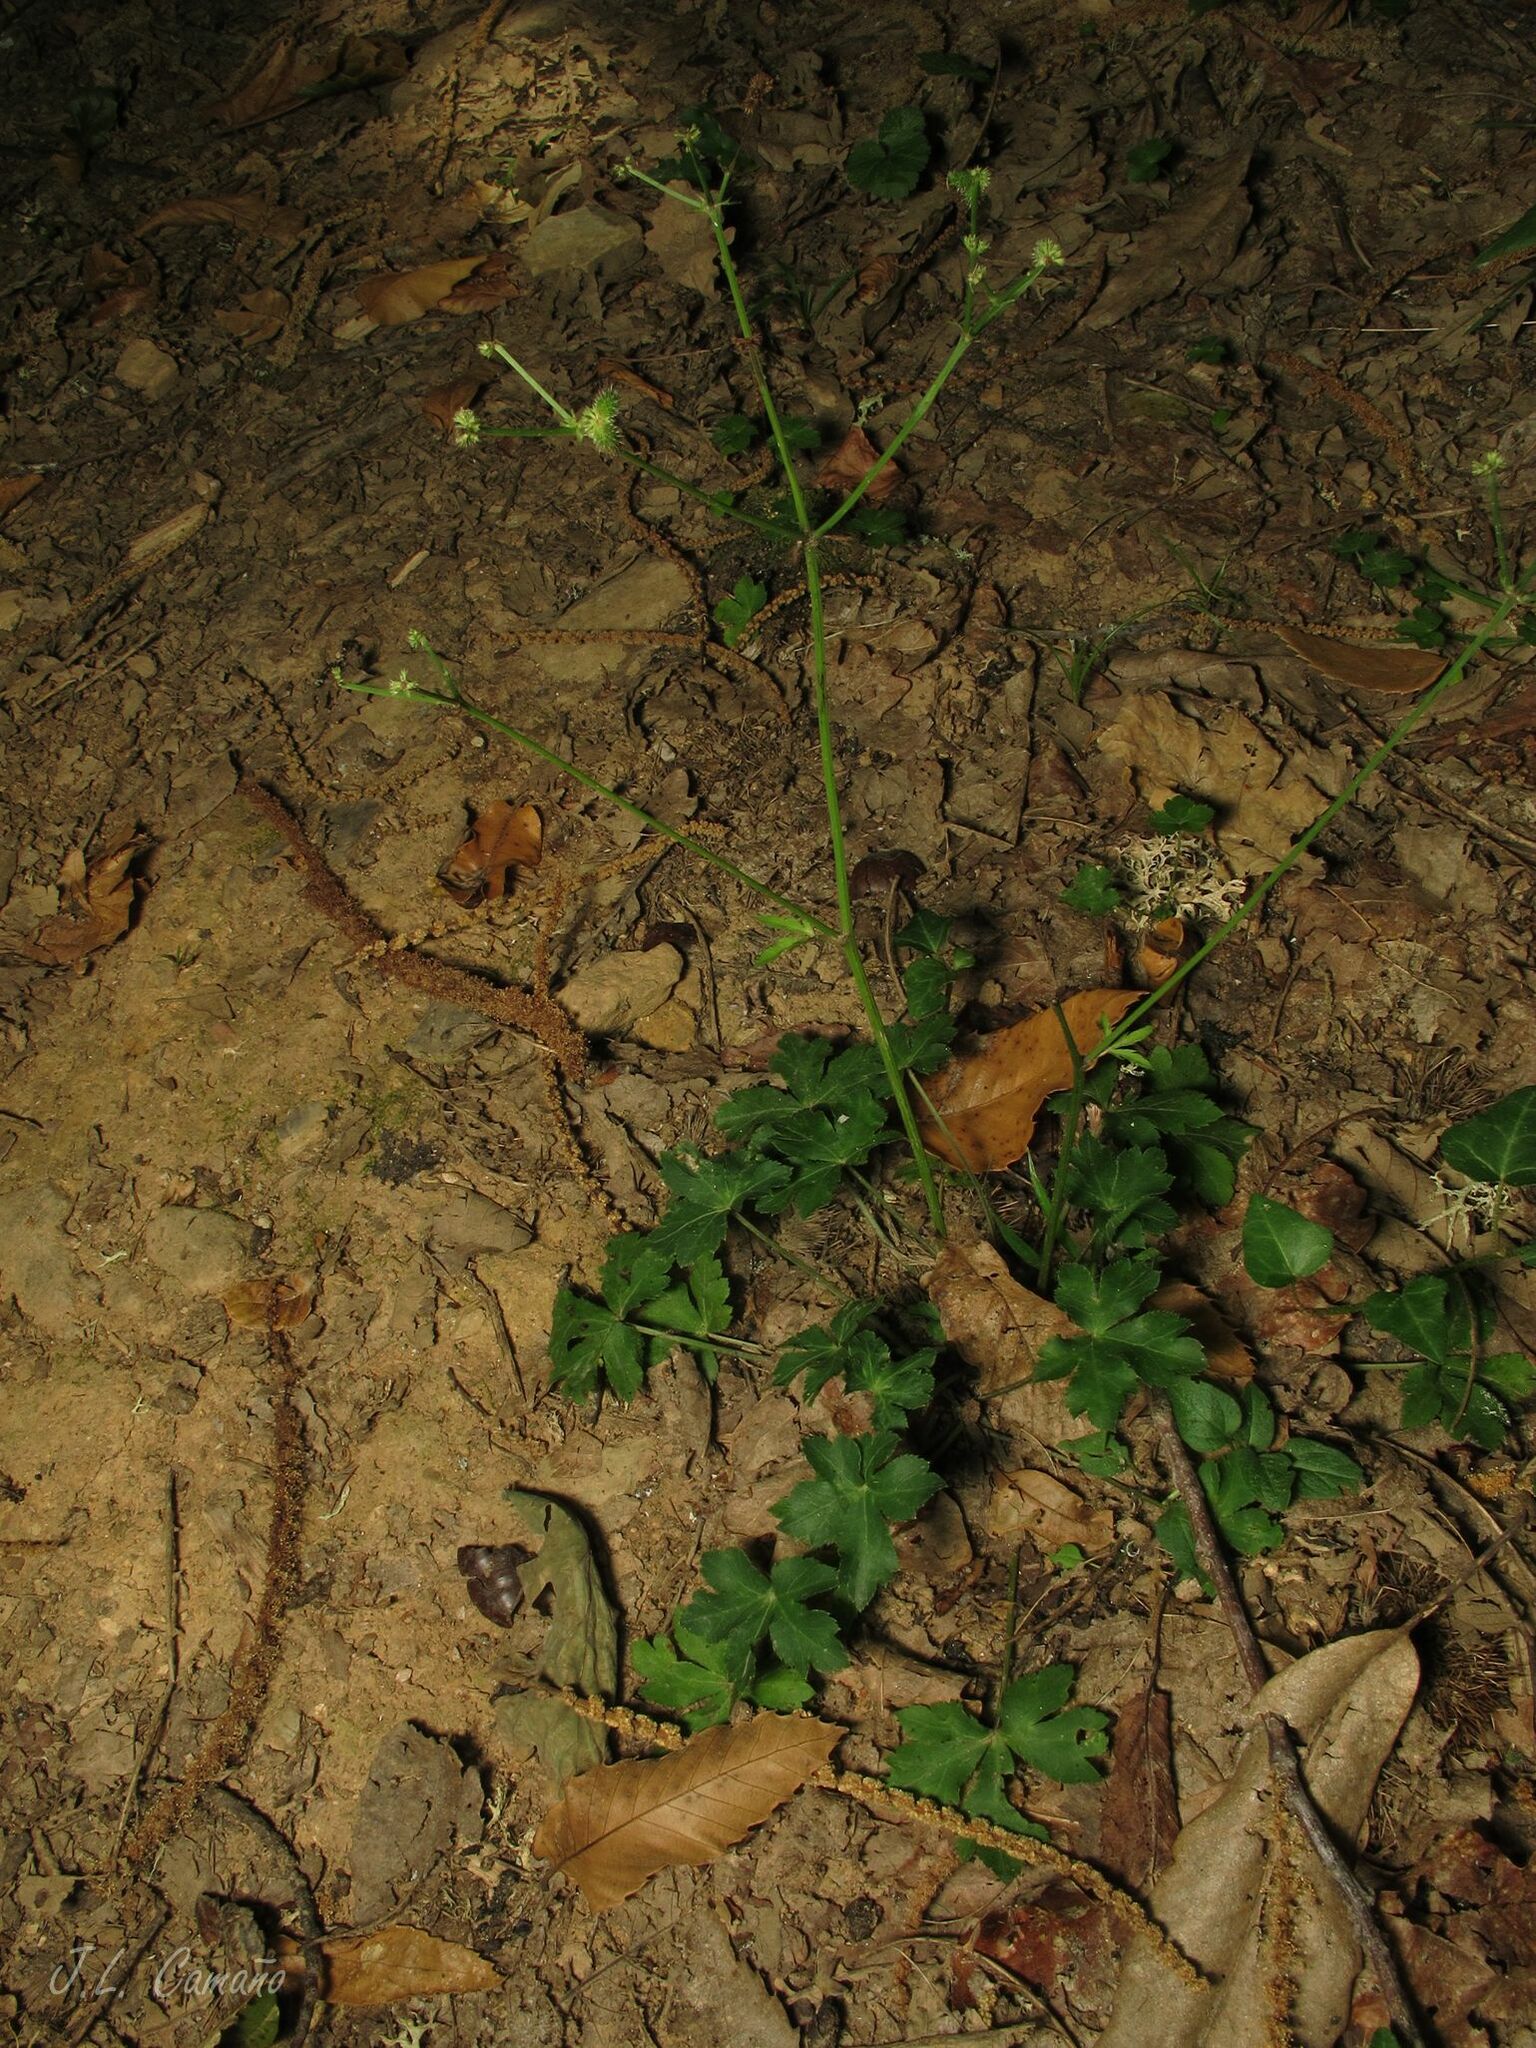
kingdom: Plantae
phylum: Tracheophyta
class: Magnoliopsida
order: Apiales
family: Apiaceae
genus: Sanicula
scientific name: Sanicula europaea
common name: Sanicle
